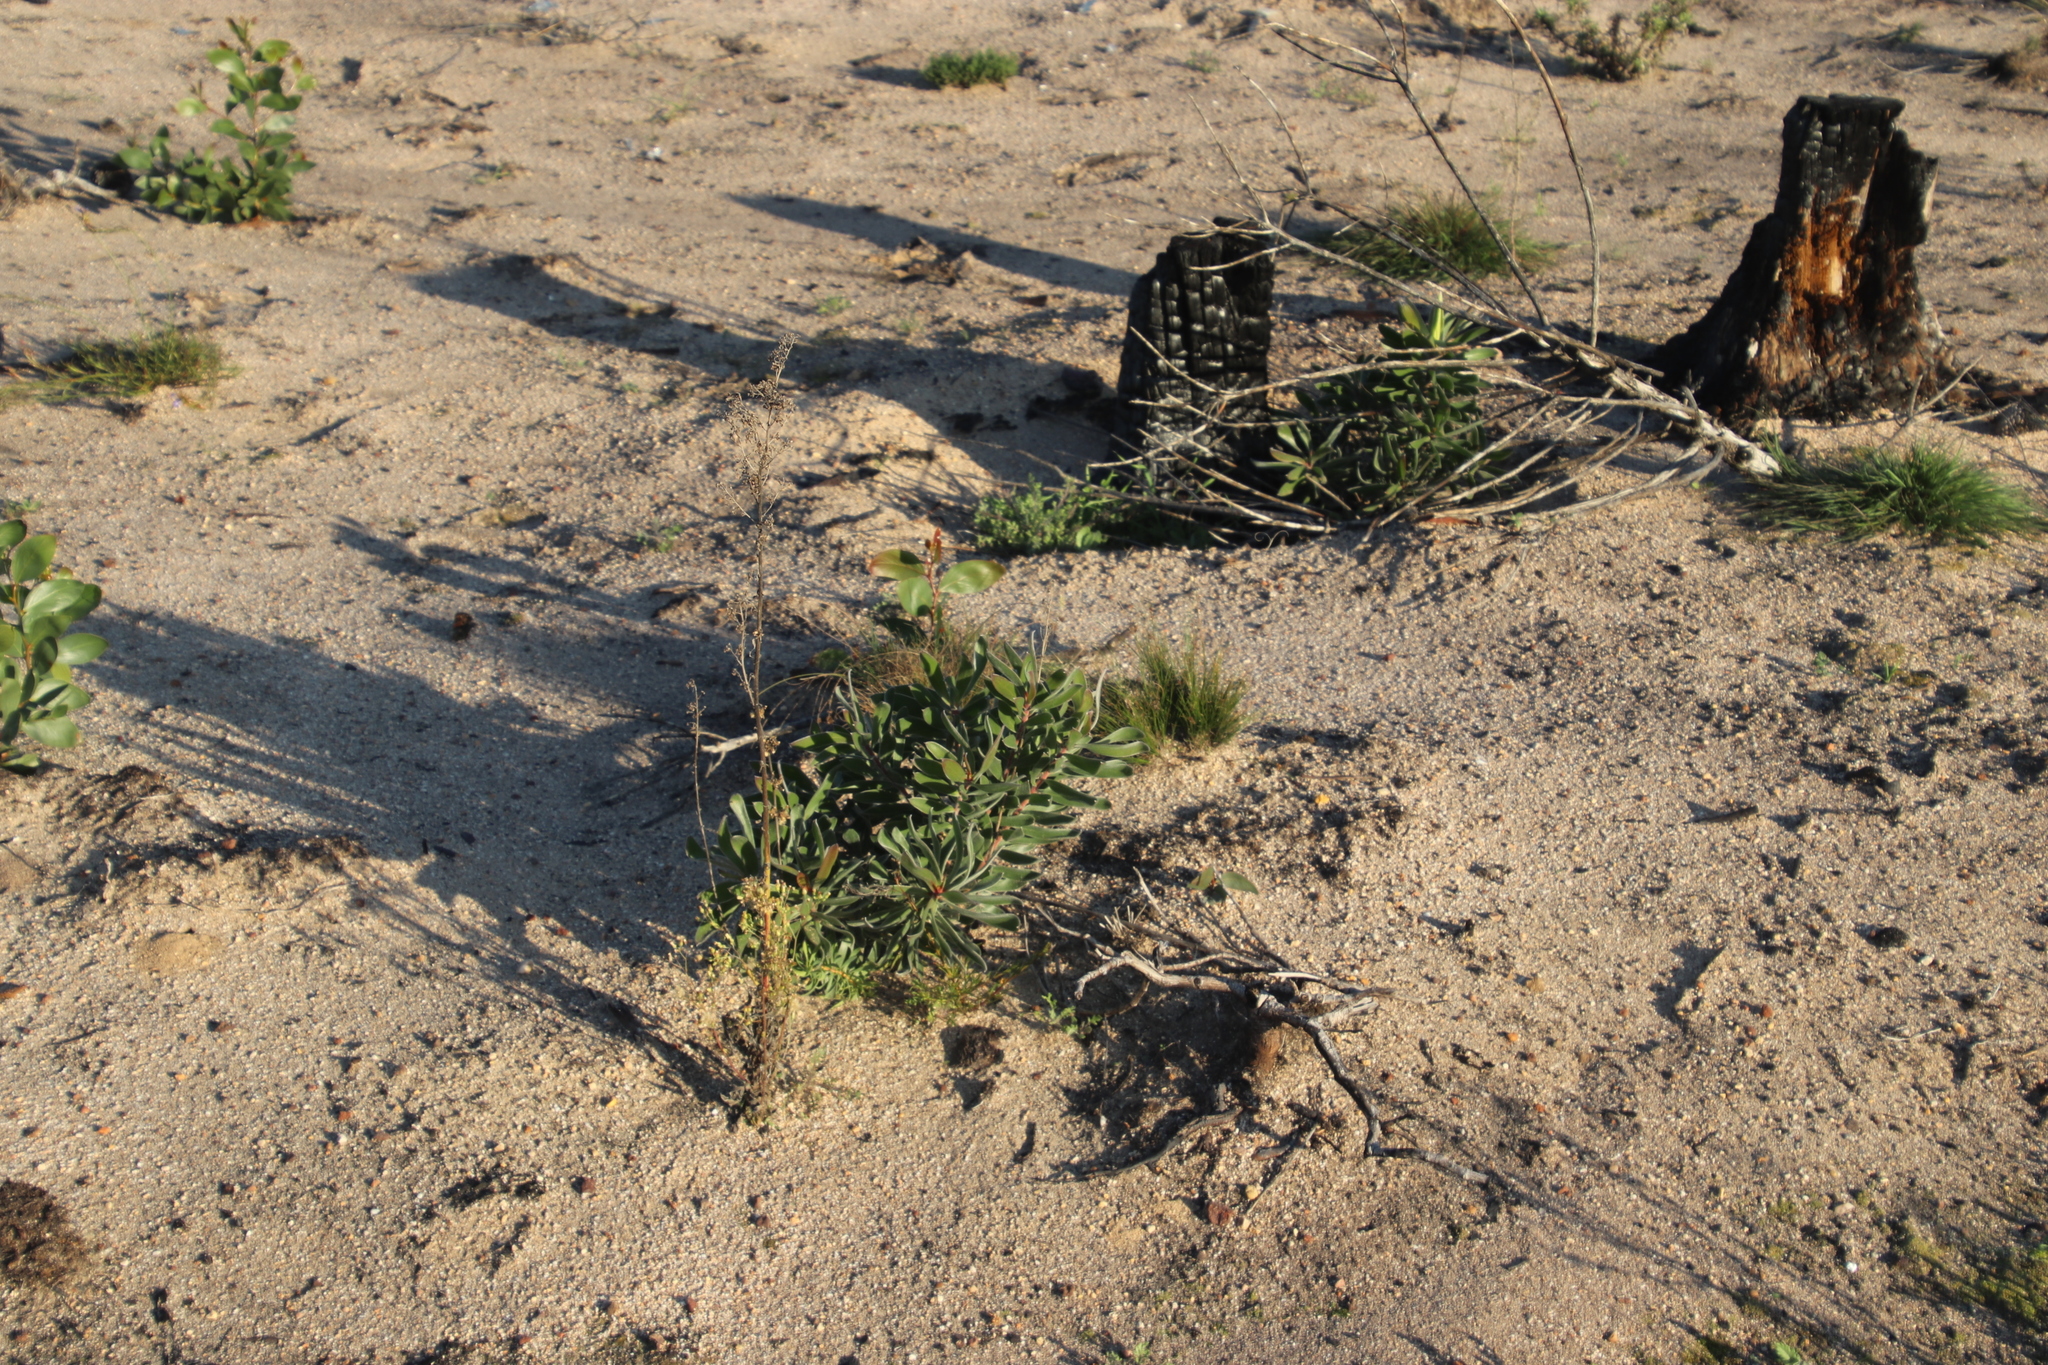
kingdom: Plantae
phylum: Tracheophyta
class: Magnoliopsida
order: Proteales
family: Proteaceae
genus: Leucadendron
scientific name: Leucadendron laureolum
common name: Golden sunshinebush
